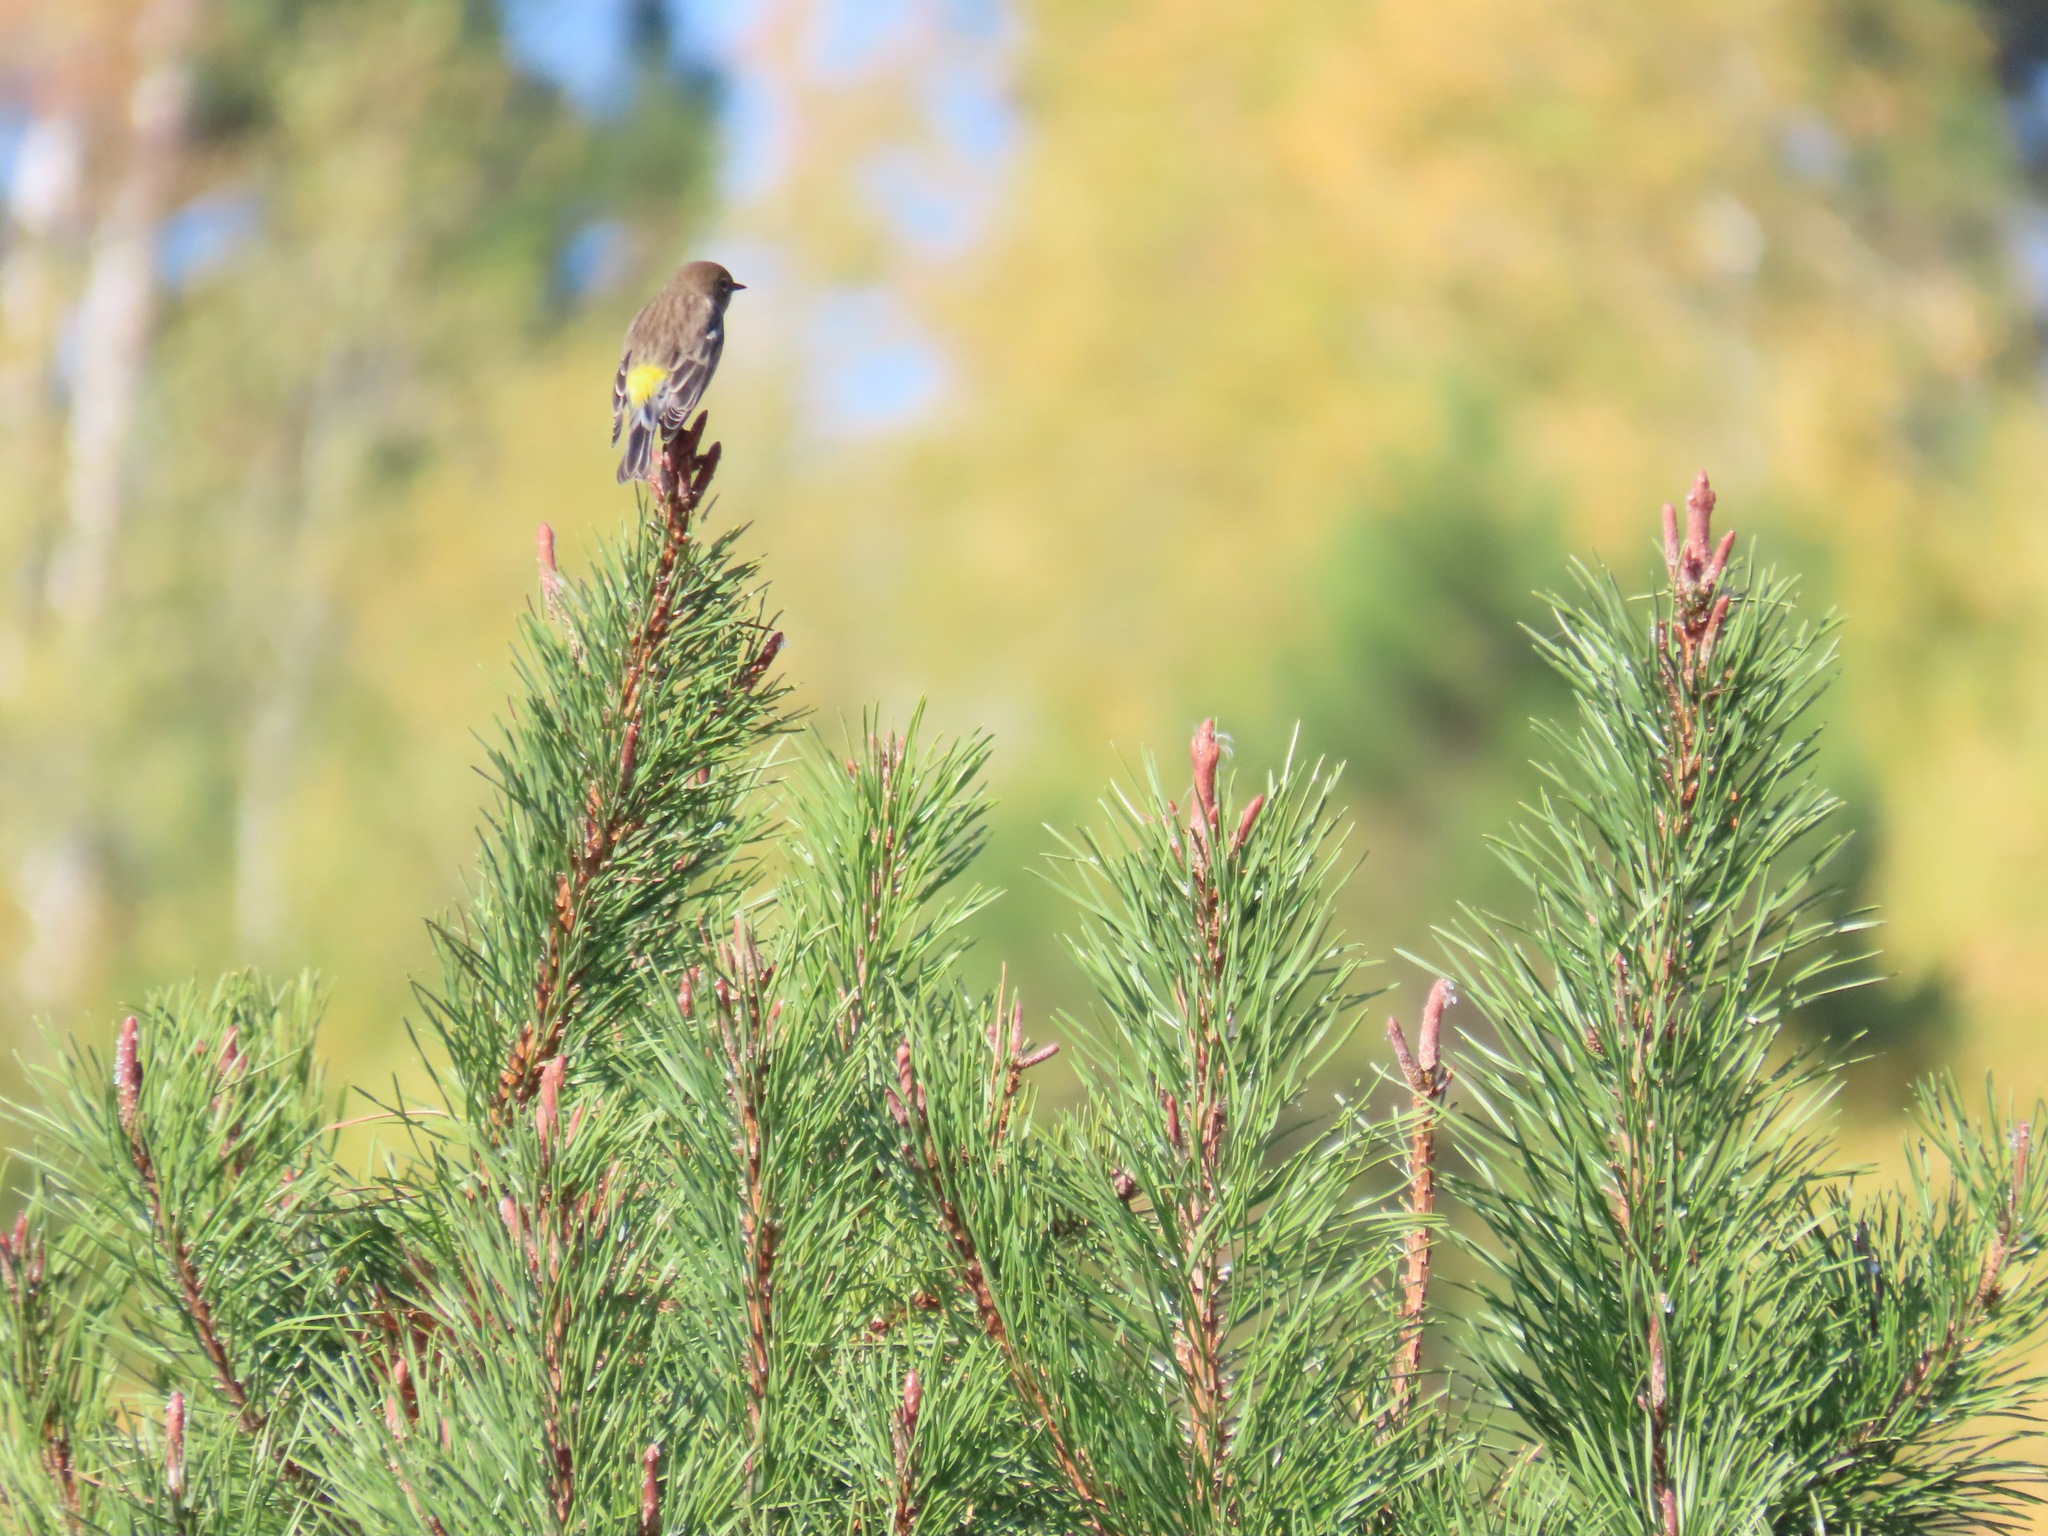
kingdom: Animalia
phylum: Chordata
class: Aves
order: Passeriformes
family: Parulidae
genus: Setophaga
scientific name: Setophaga coronata
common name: Myrtle warbler
